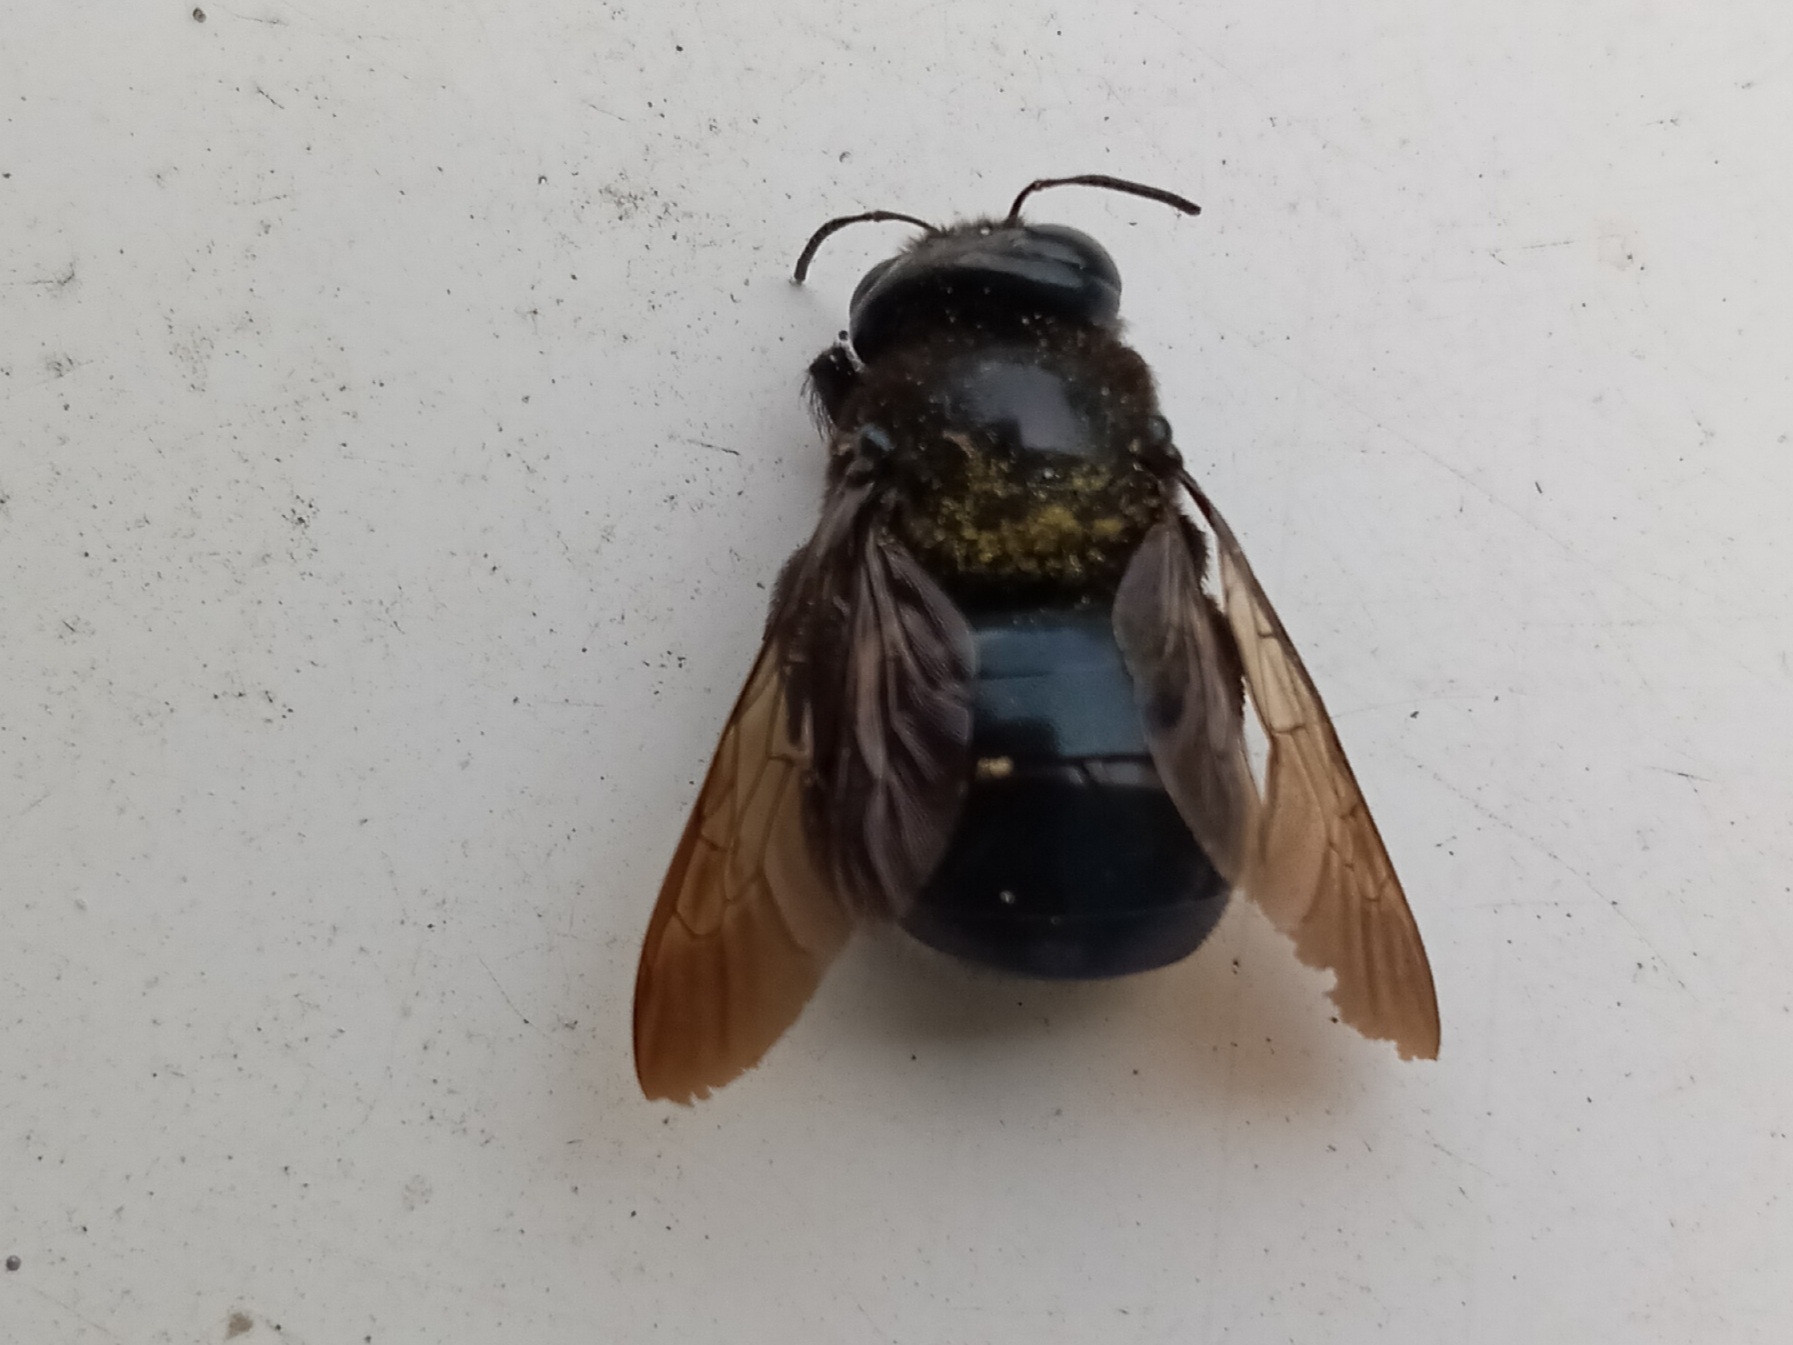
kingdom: Animalia
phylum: Arthropoda
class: Insecta
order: Hymenoptera
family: Apidae
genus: Xylocopa
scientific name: Xylocopa micans
